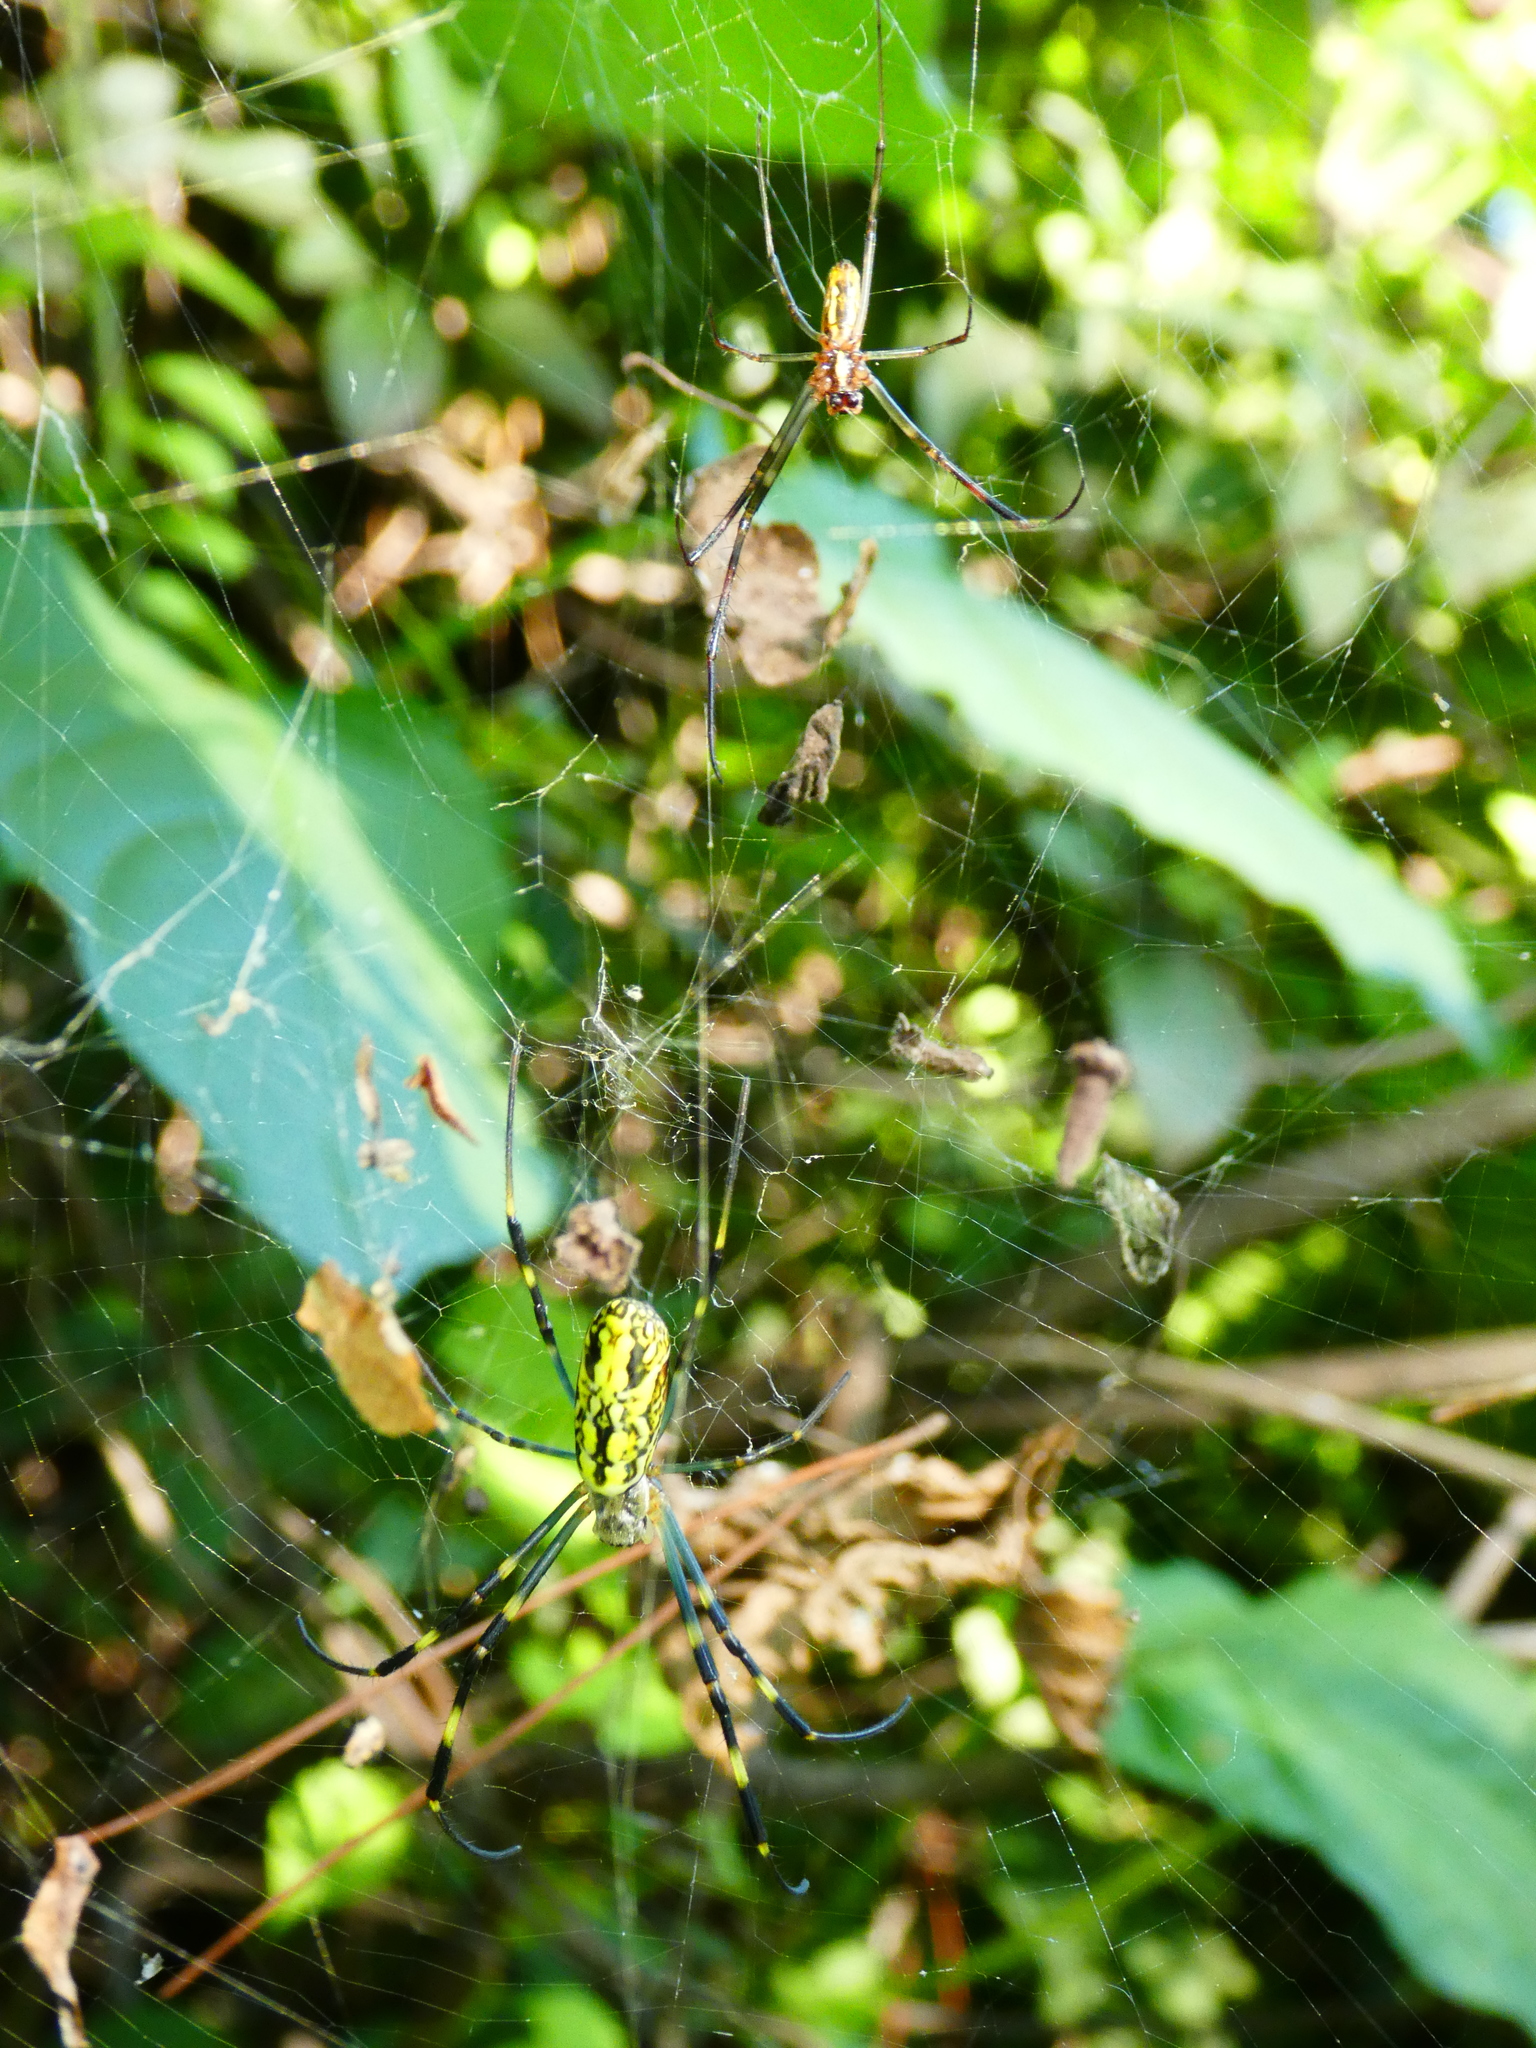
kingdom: Animalia
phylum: Arthropoda
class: Arachnida
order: Araneae
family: Araneidae
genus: Trichonephila
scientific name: Trichonephila clavata
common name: Jorō spider
